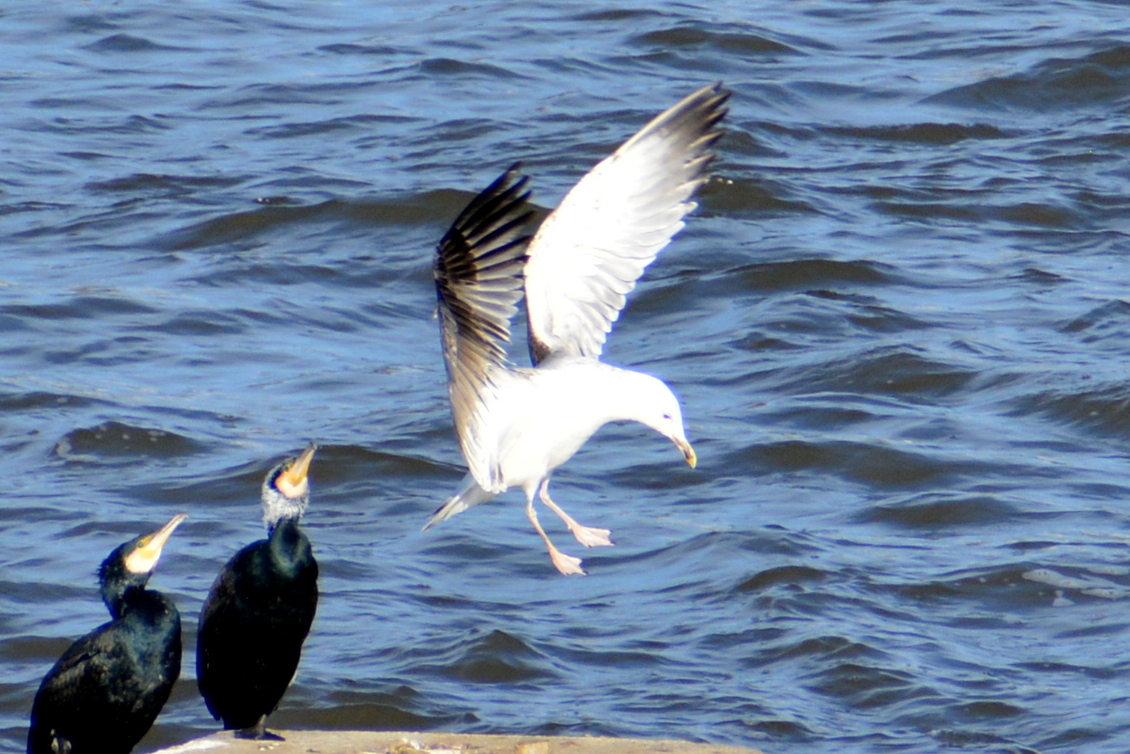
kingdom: Animalia
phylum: Chordata
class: Aves
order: Charadriiformes
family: Laridae
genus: Larus
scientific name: Larus cachinnans
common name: Caspian gull
